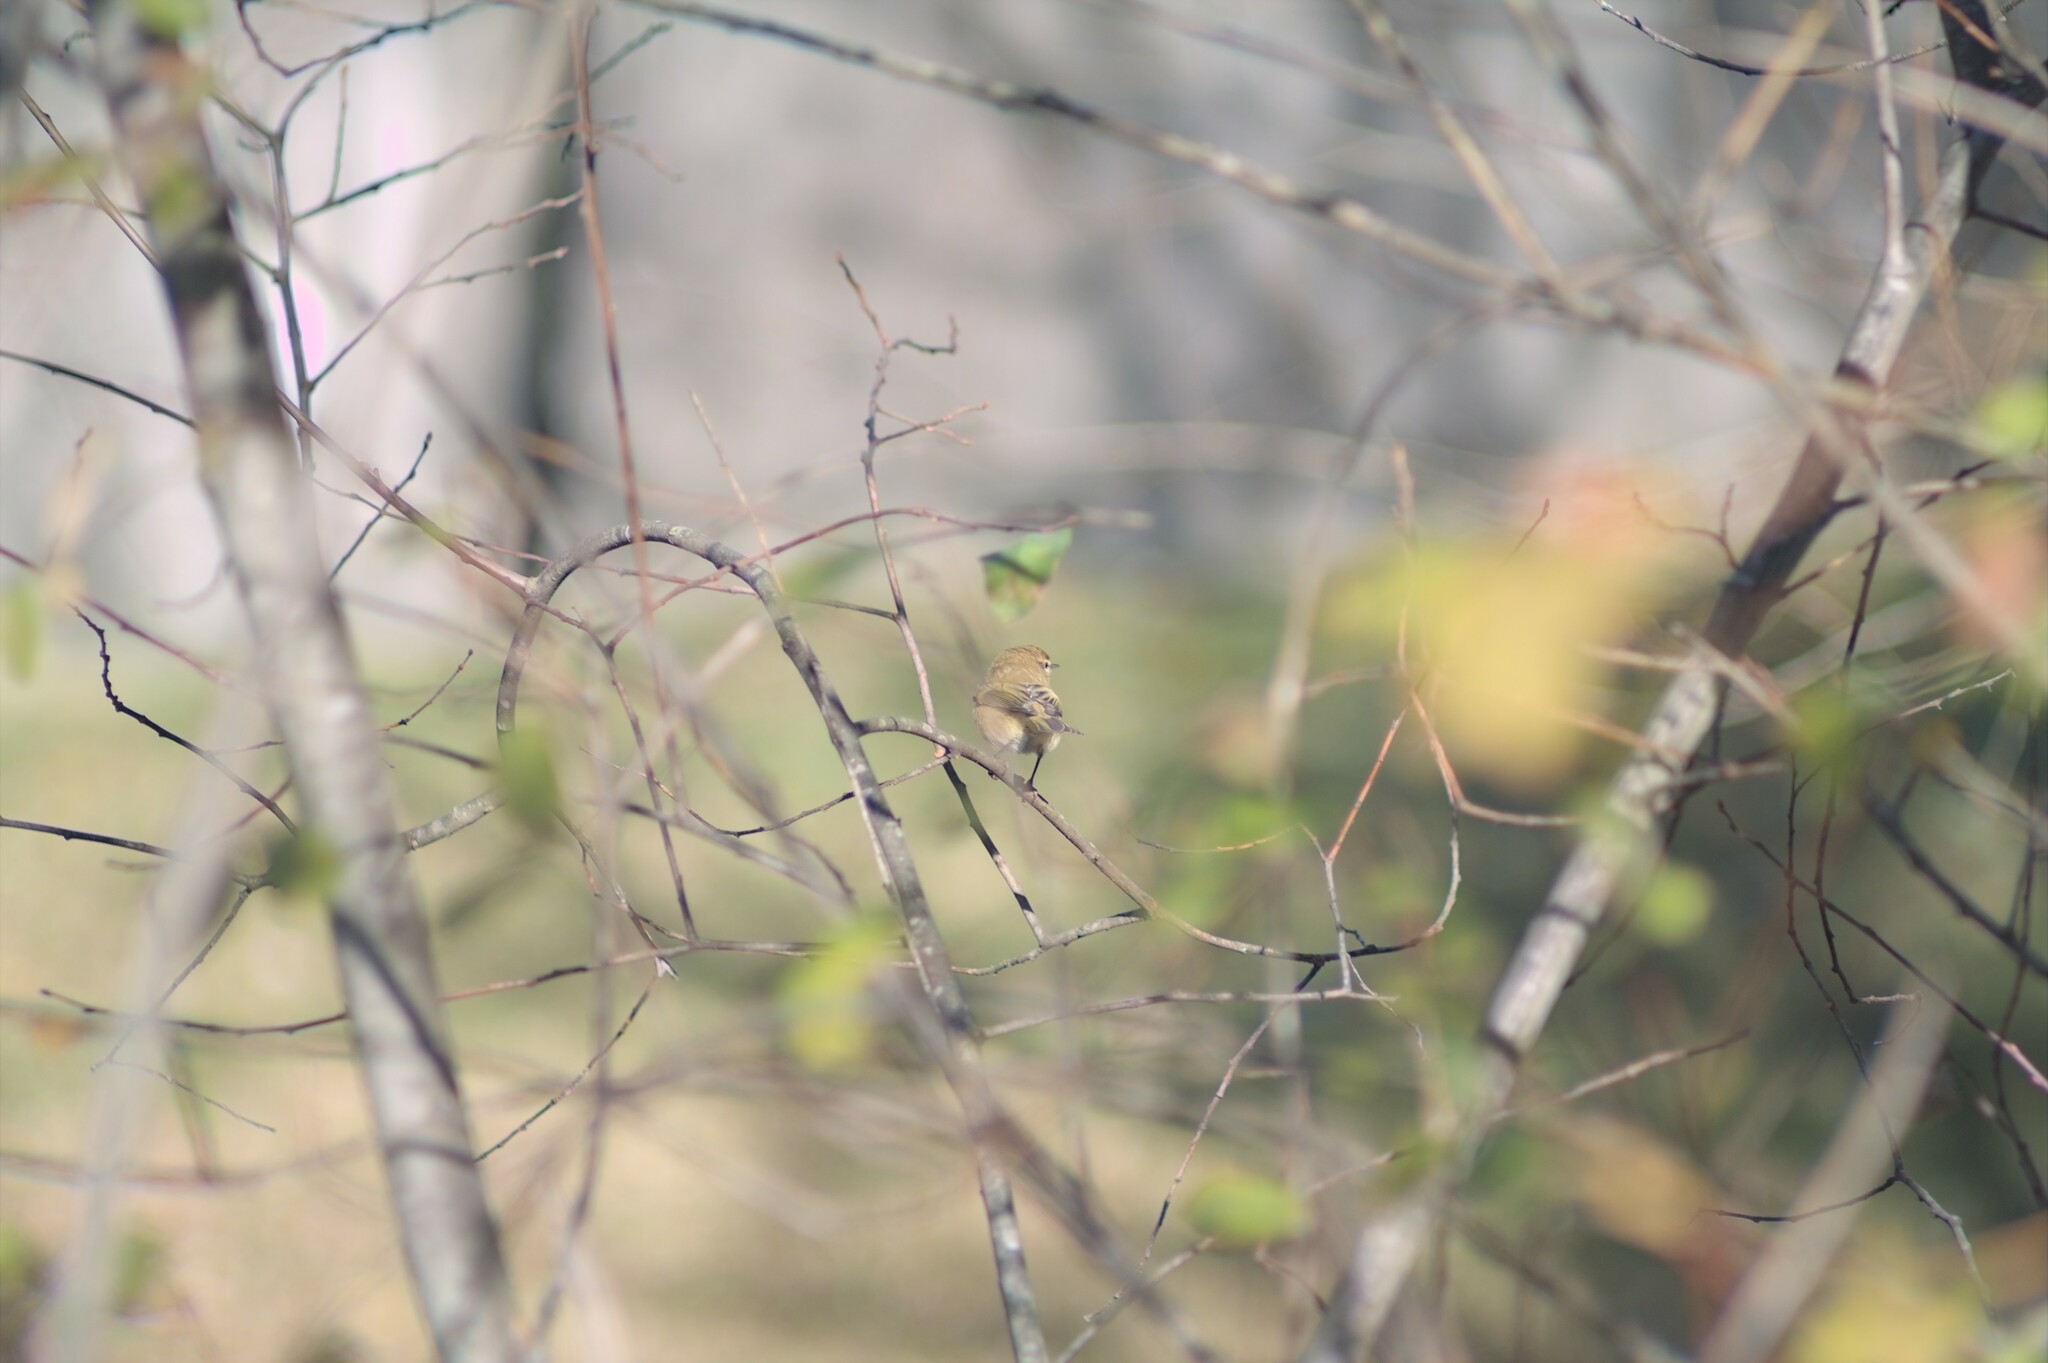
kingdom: Animalia
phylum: Chordata
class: Aves
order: Passeriformes
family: Phylloscopidae
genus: Phylloscopus
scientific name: Phylloscopus collybita
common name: Common chiffchaff
